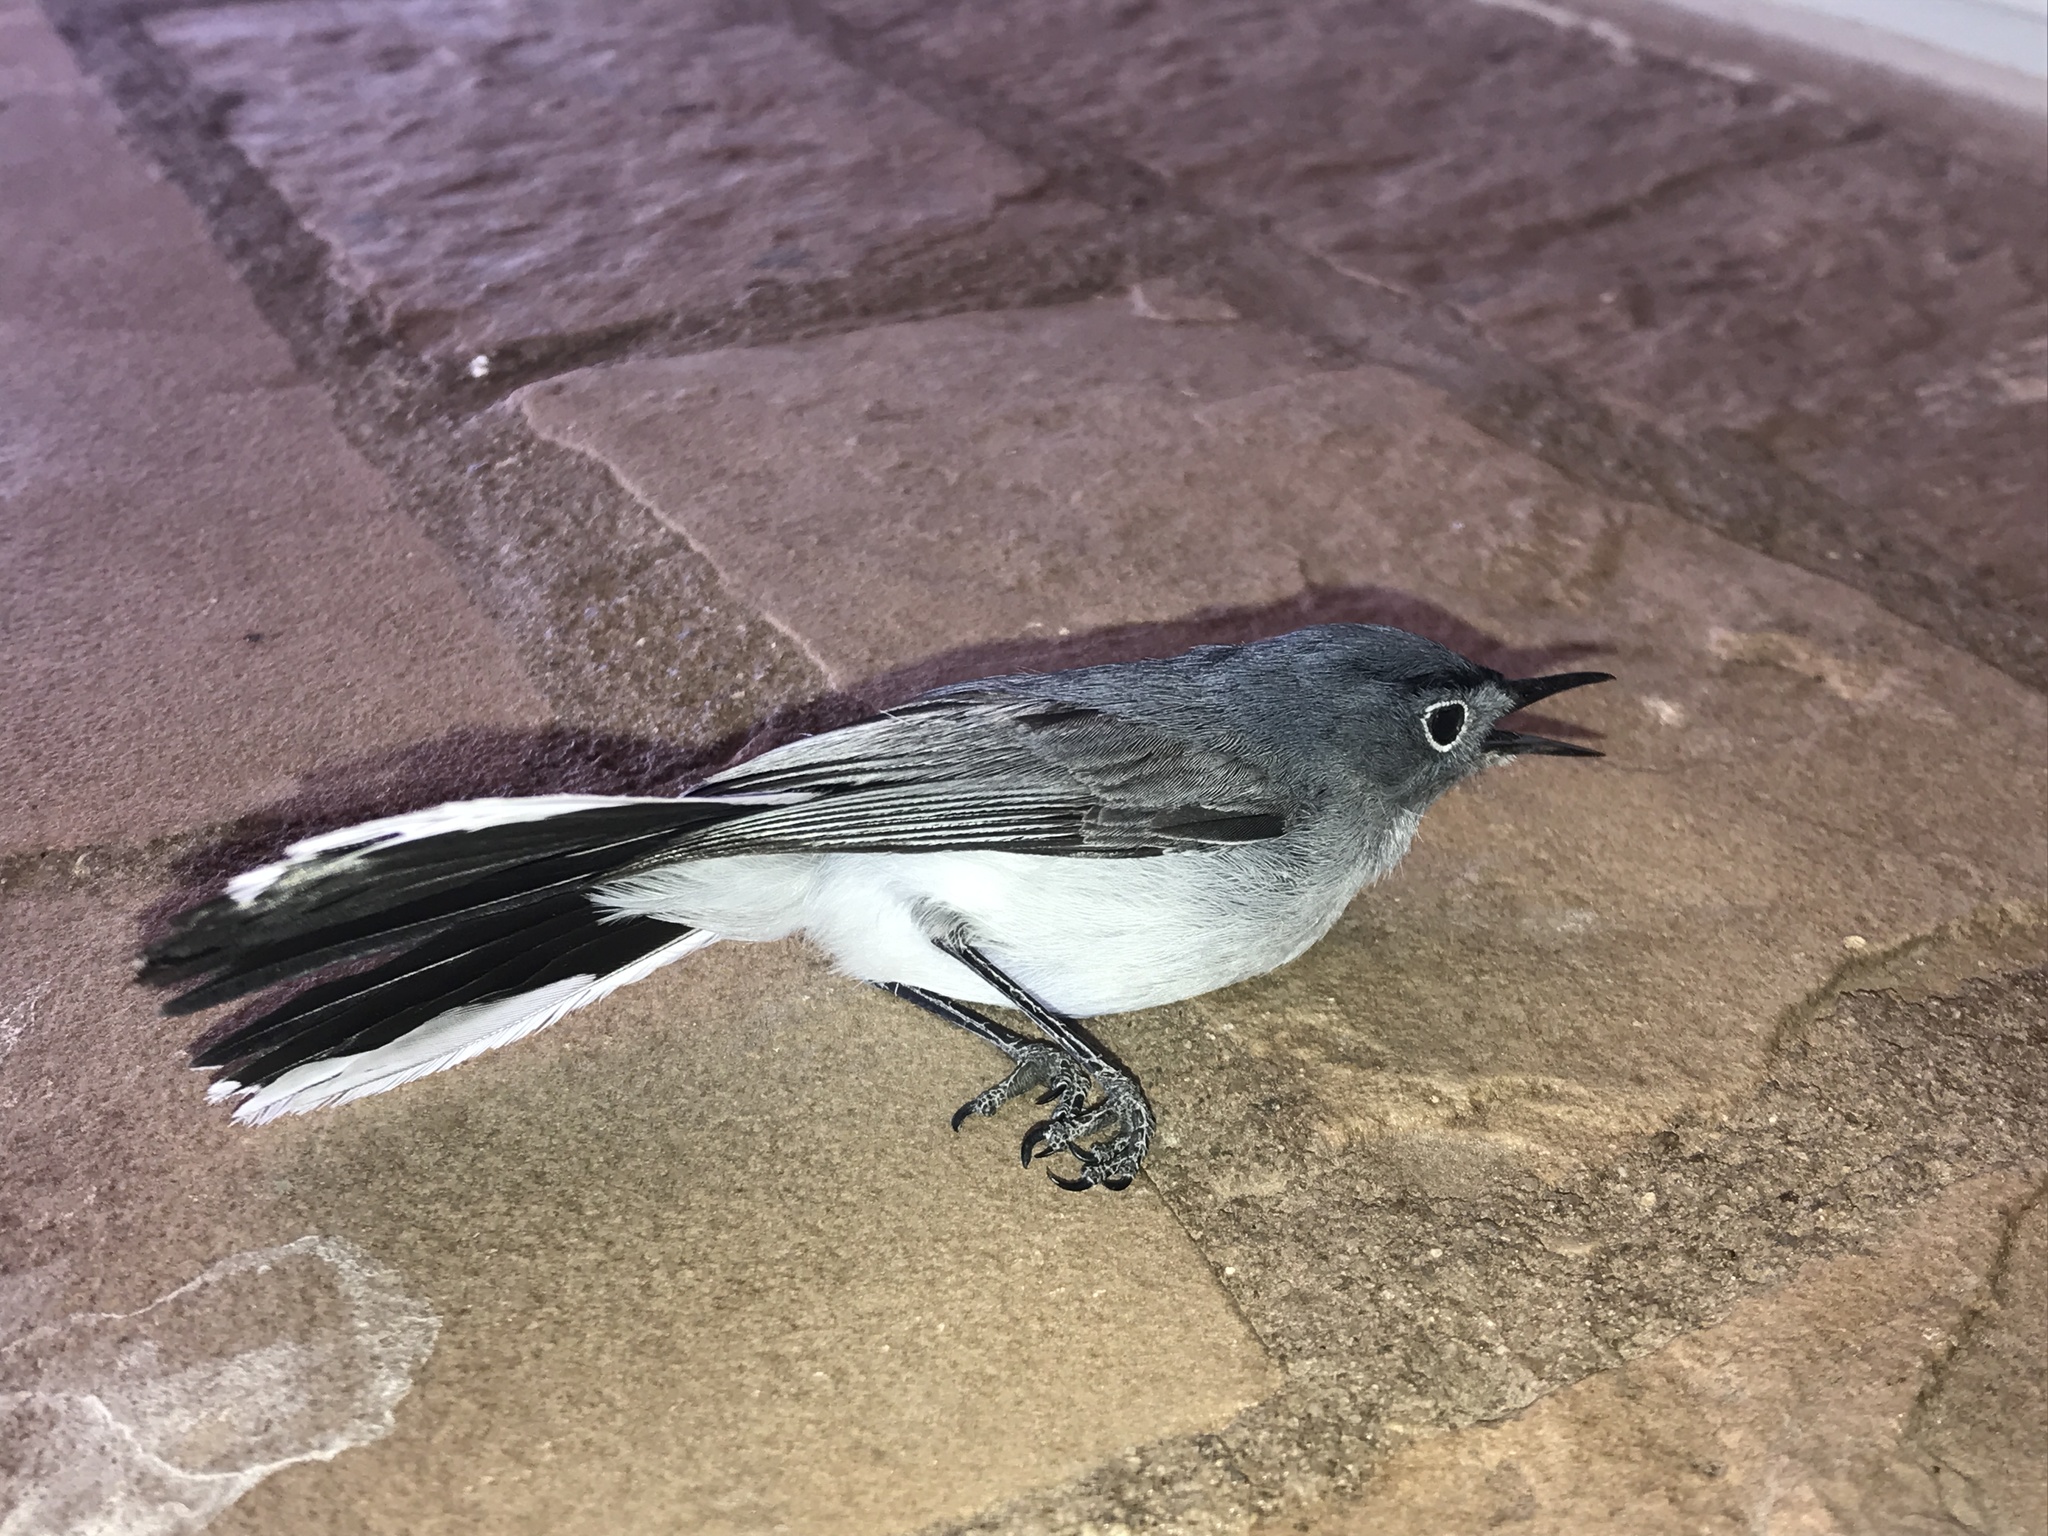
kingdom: Animalia
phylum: Chordata
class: Aves
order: Passeriformes
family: Polioptilidae
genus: Polioptila
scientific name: Polioptila caerulea
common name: Blue-gray gnatcatcher
